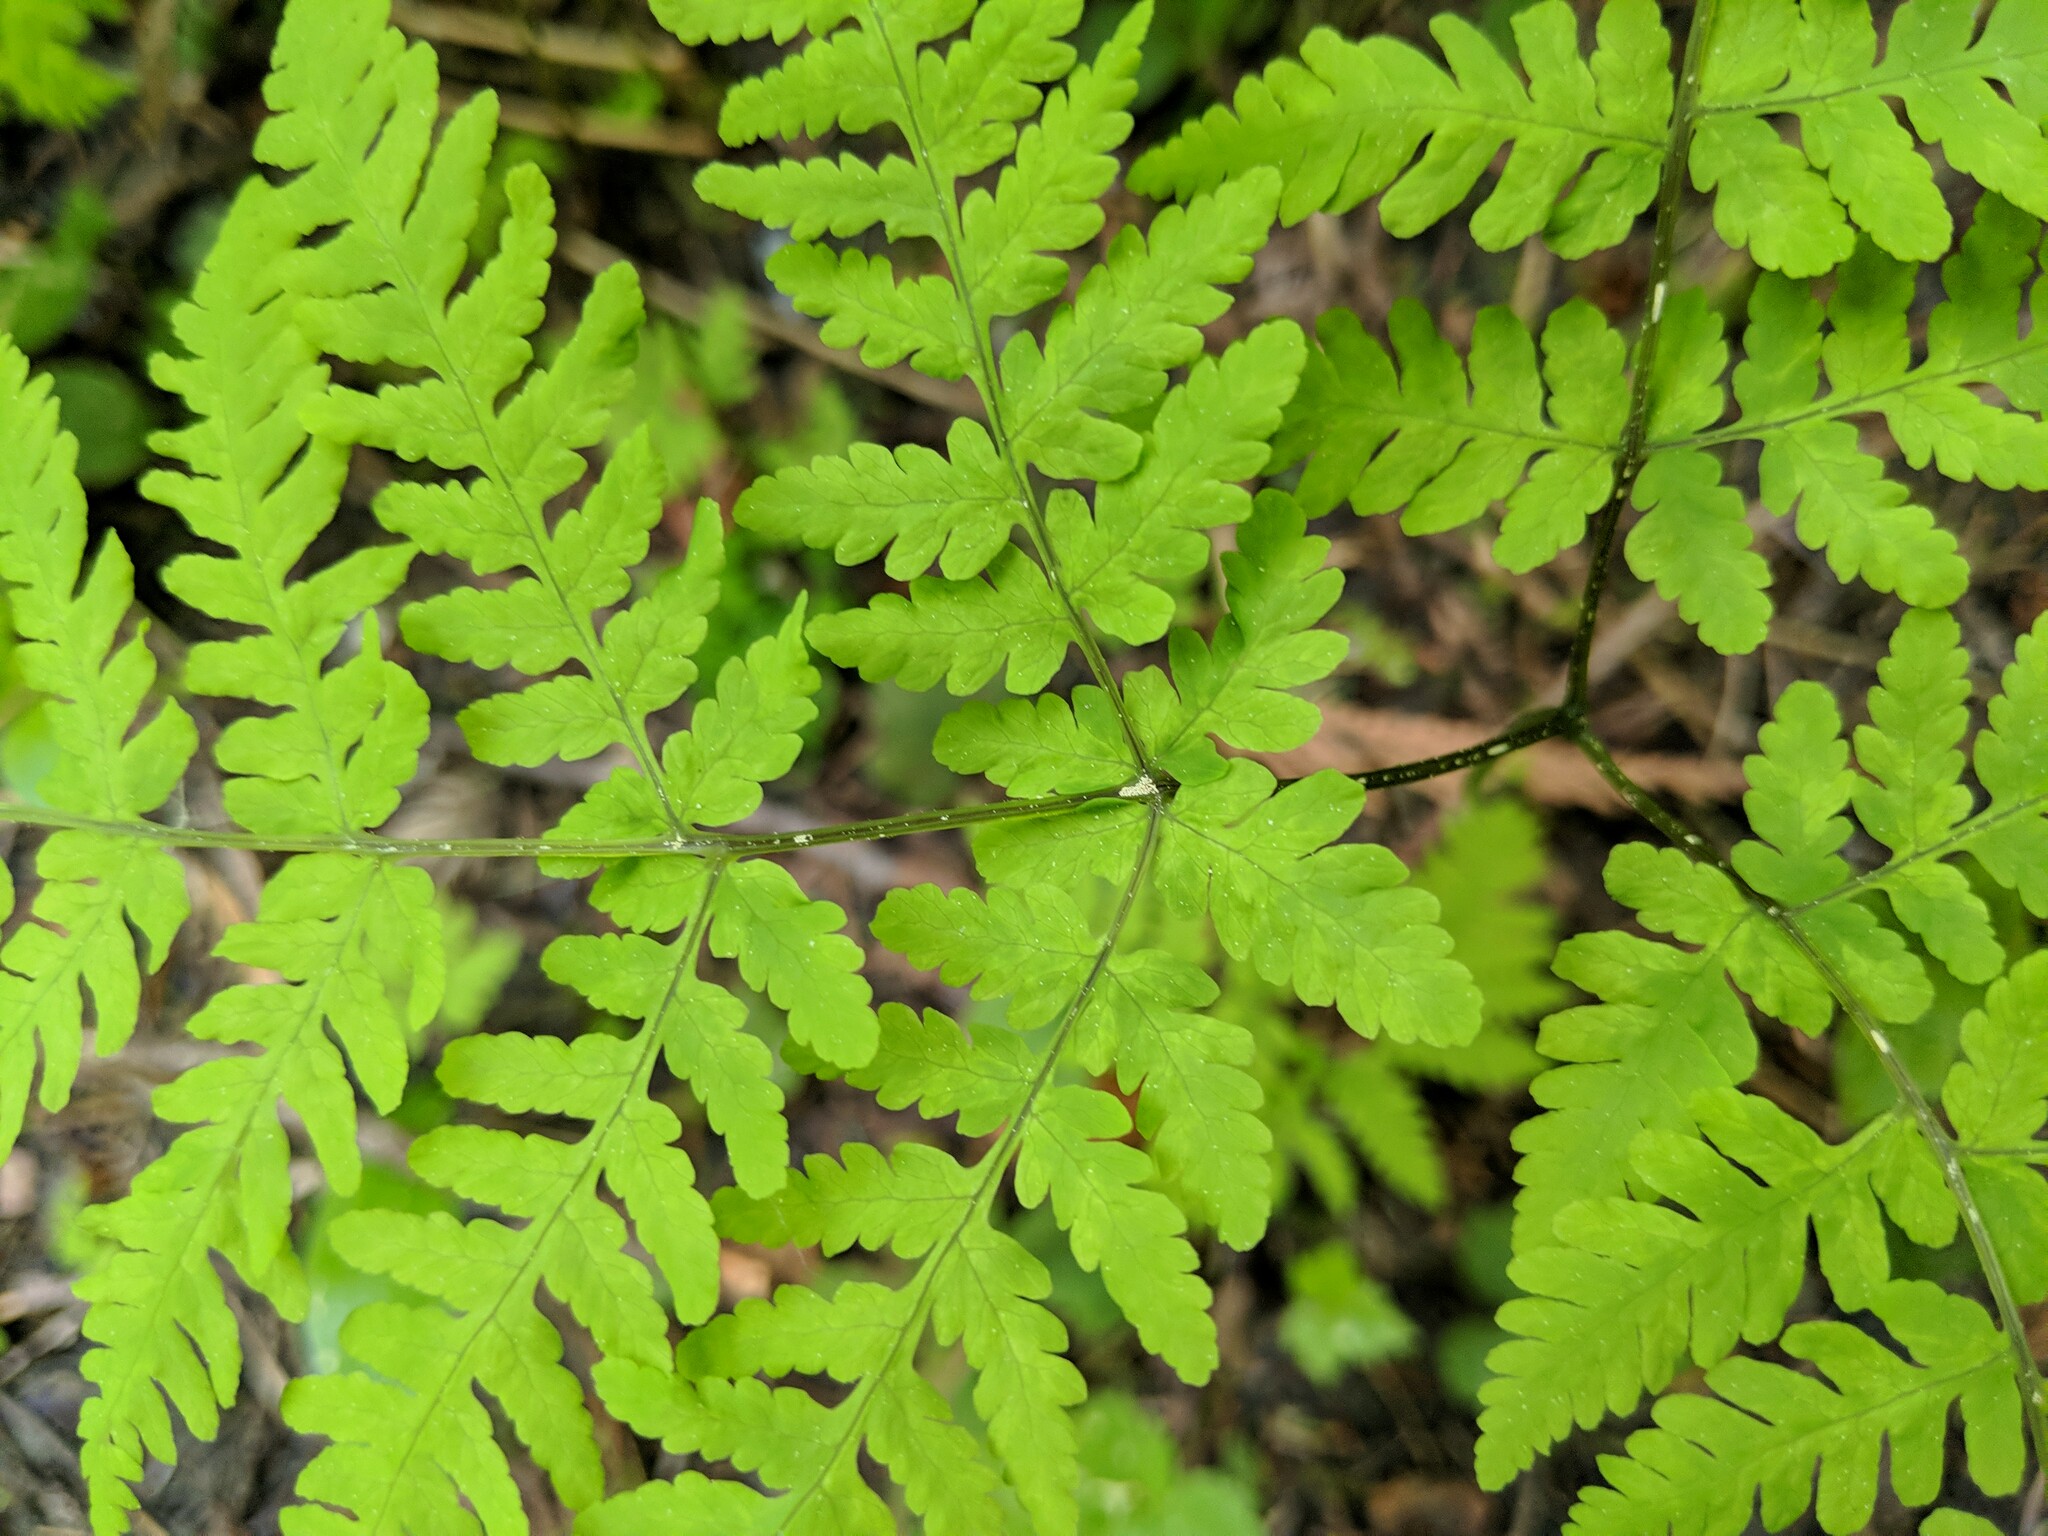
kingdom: Plantae
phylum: Tracheophyta
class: Polypodiopsida
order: Polypodiales
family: Cystopteridaceae
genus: Gymnocarpium
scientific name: Gymnocarpium disjunctum
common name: Western oak fern
